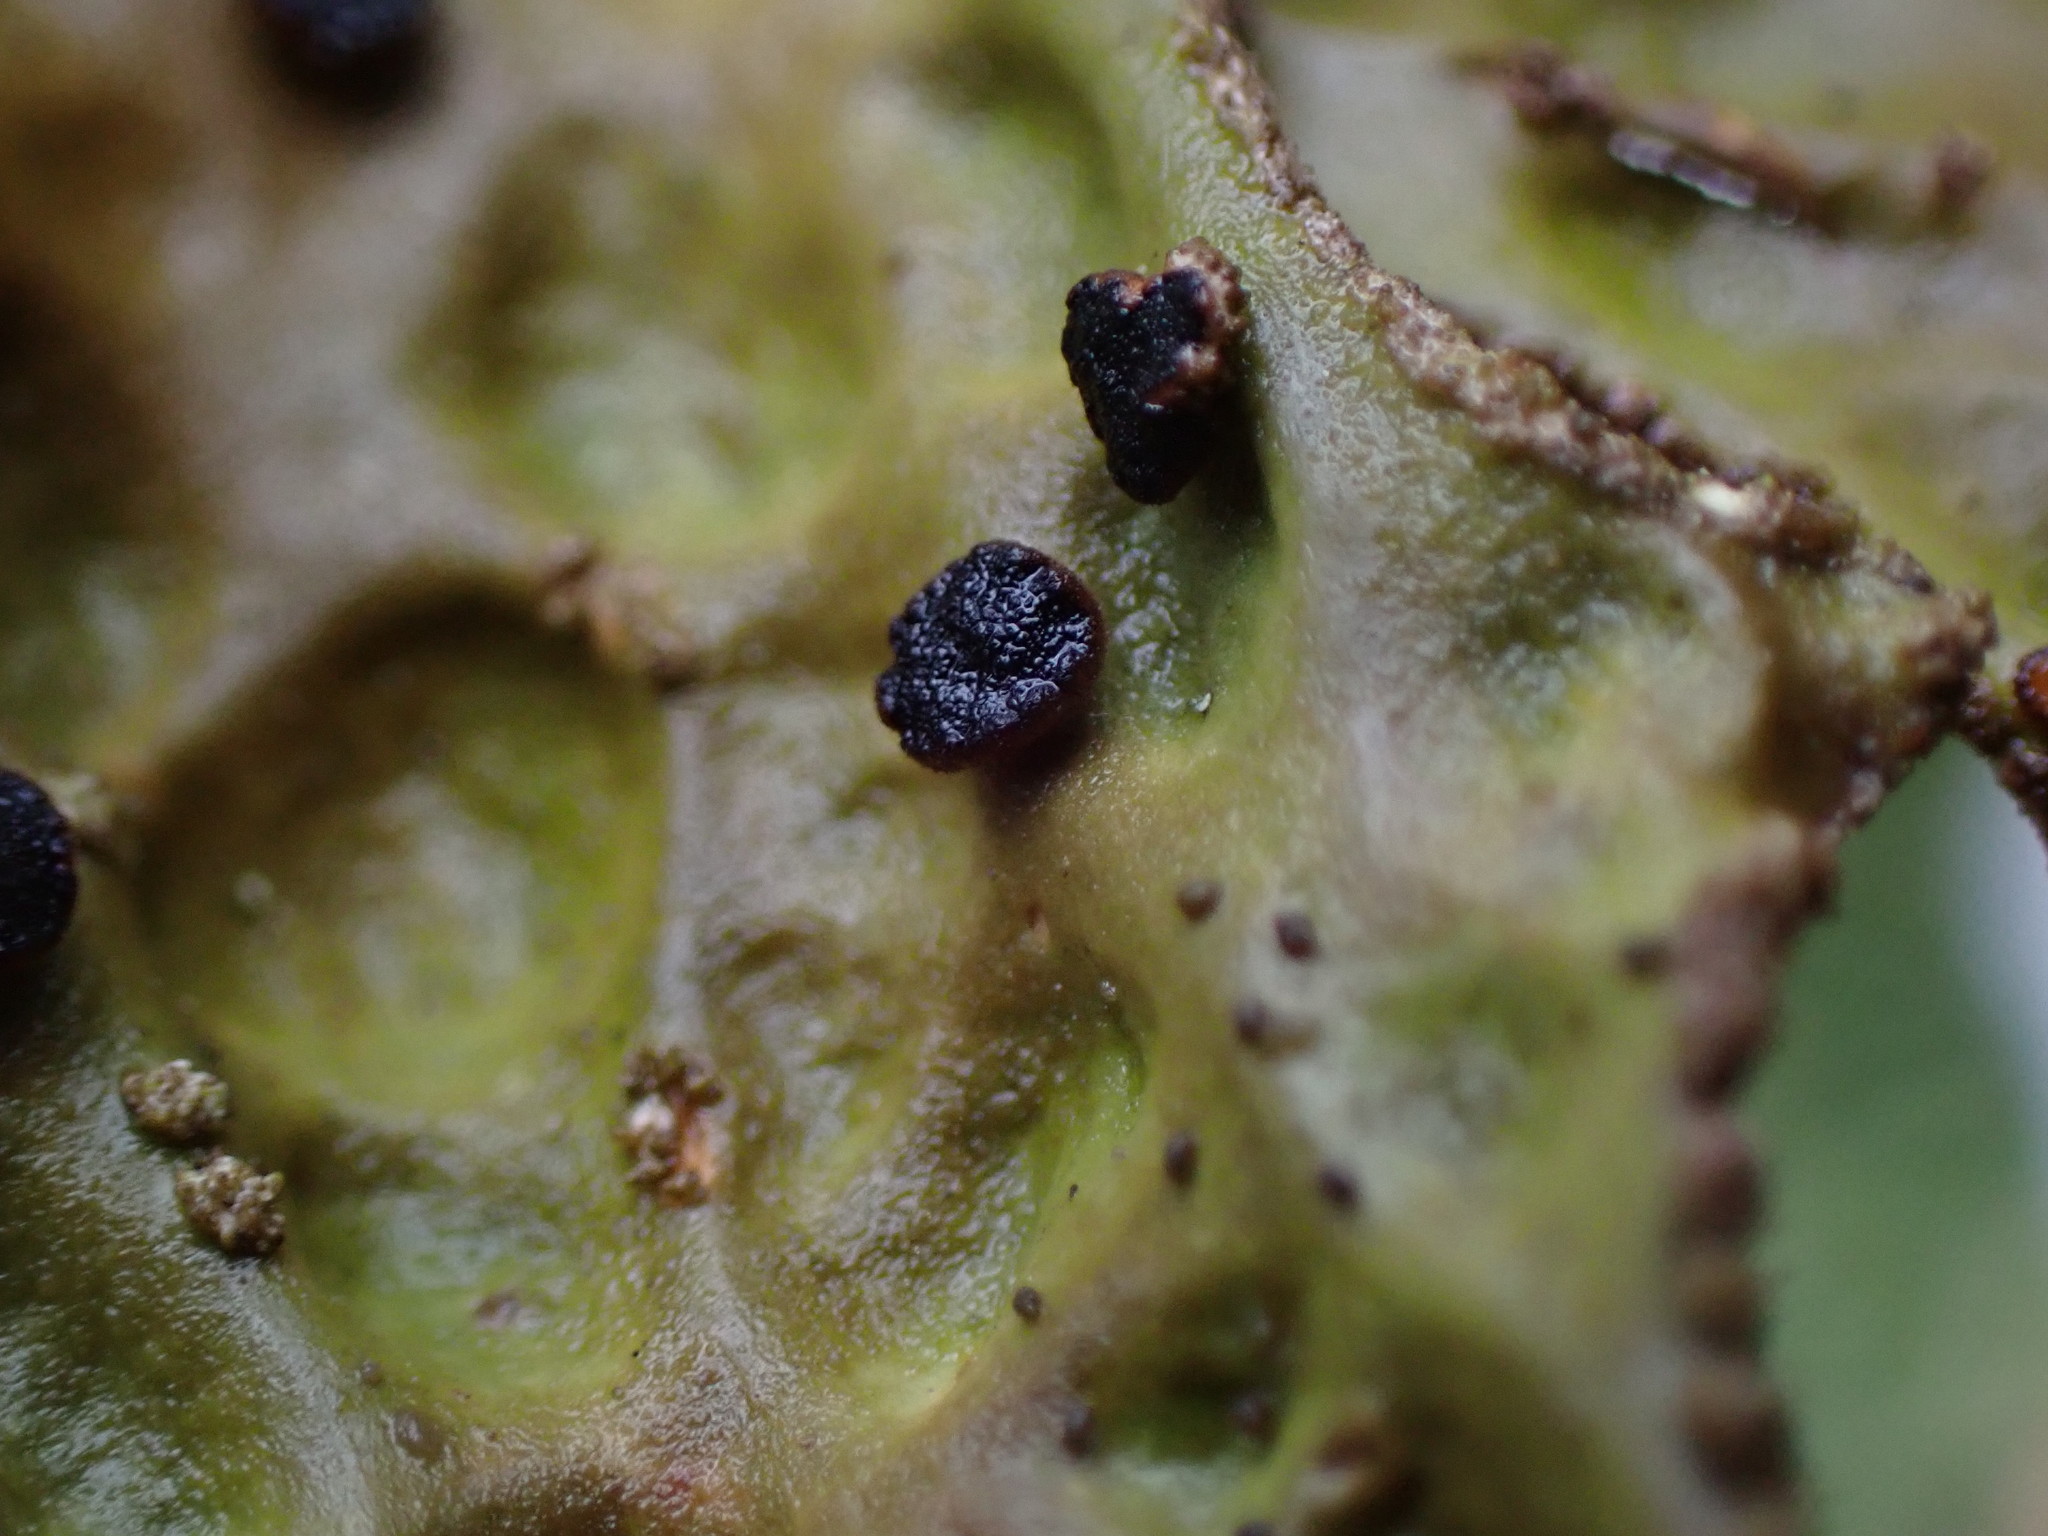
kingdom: Fungi
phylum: Ascomycota
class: Arthoniomycetes
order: Arthoniales
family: Lecanographaceae
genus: Plectocarpon
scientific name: Plectocarpon lichenum
